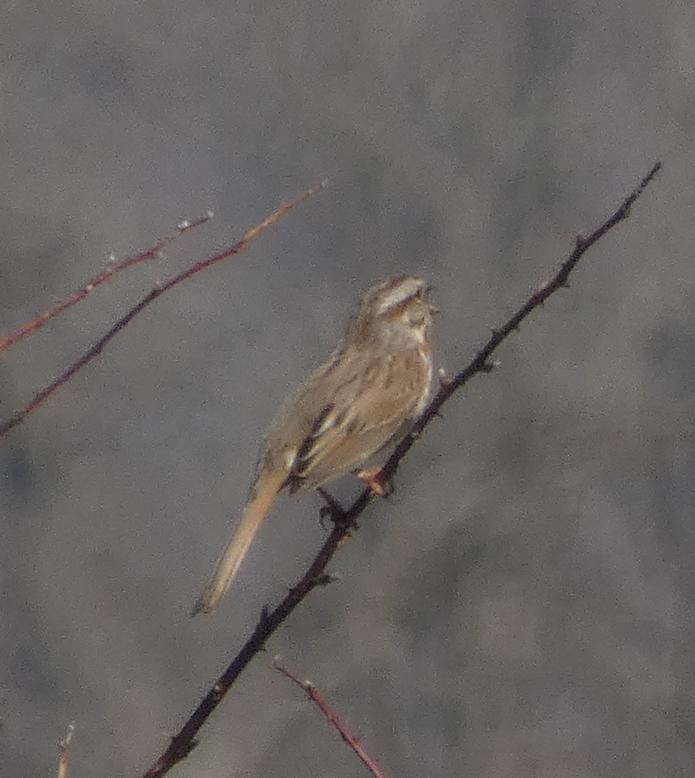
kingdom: Animalia
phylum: Chordata
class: Aves
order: Passeriformes
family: Passerellidae
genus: Melospiza
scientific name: Melospiza melodia
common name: Song sparrow
